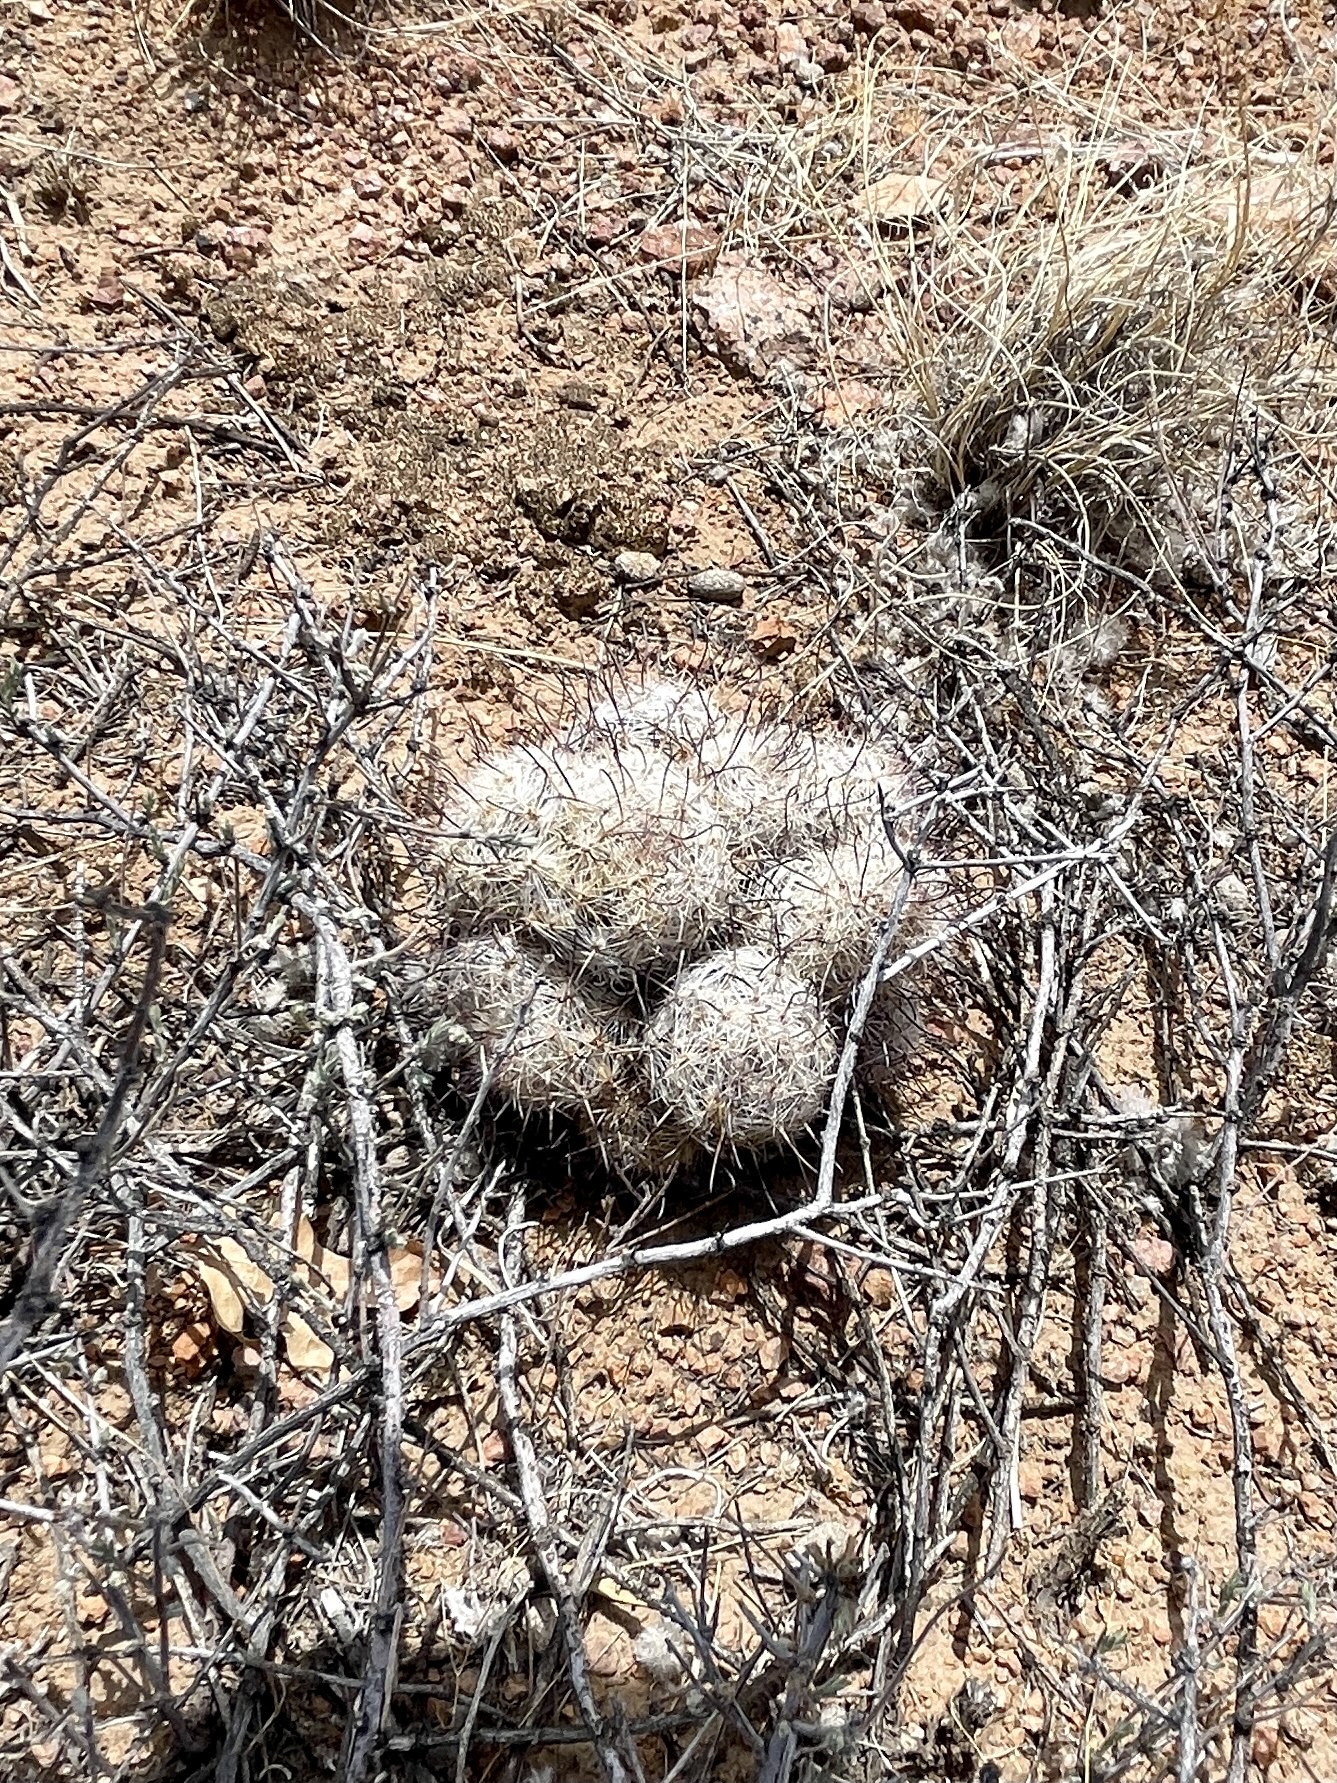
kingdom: Plantae
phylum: Tracheophyta
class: Magnoliopsida
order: Caryophyllales
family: Cactaceae
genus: Cochemiea
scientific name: Cochemiea grahamii
